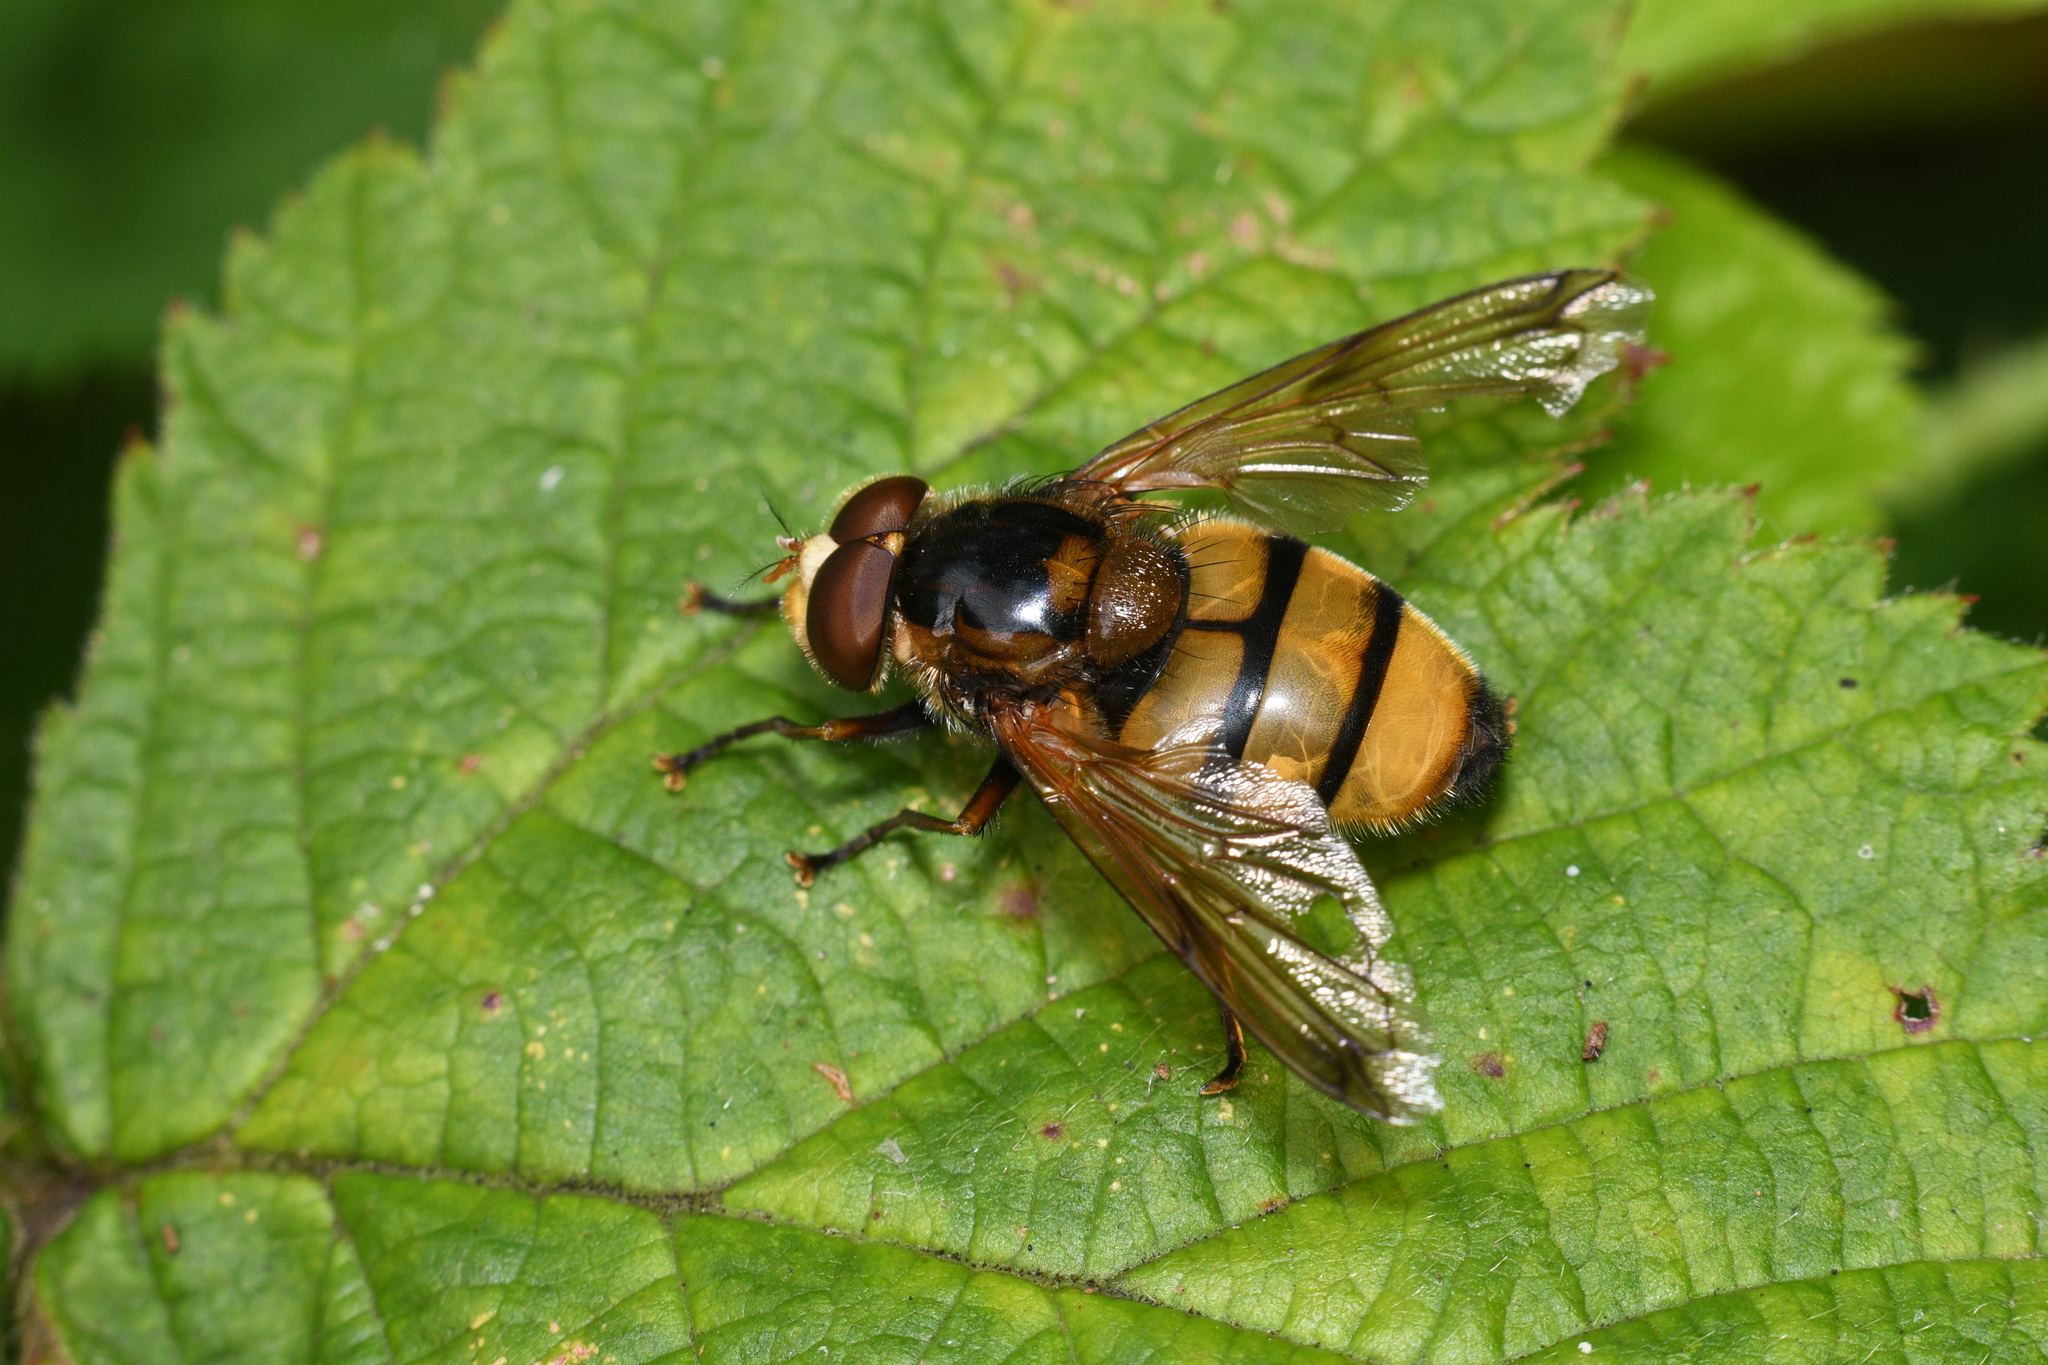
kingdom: Animalia
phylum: Arthropoda
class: Insecta
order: Diptera
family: Syrphidae
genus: Volucella
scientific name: Volucella inanis
